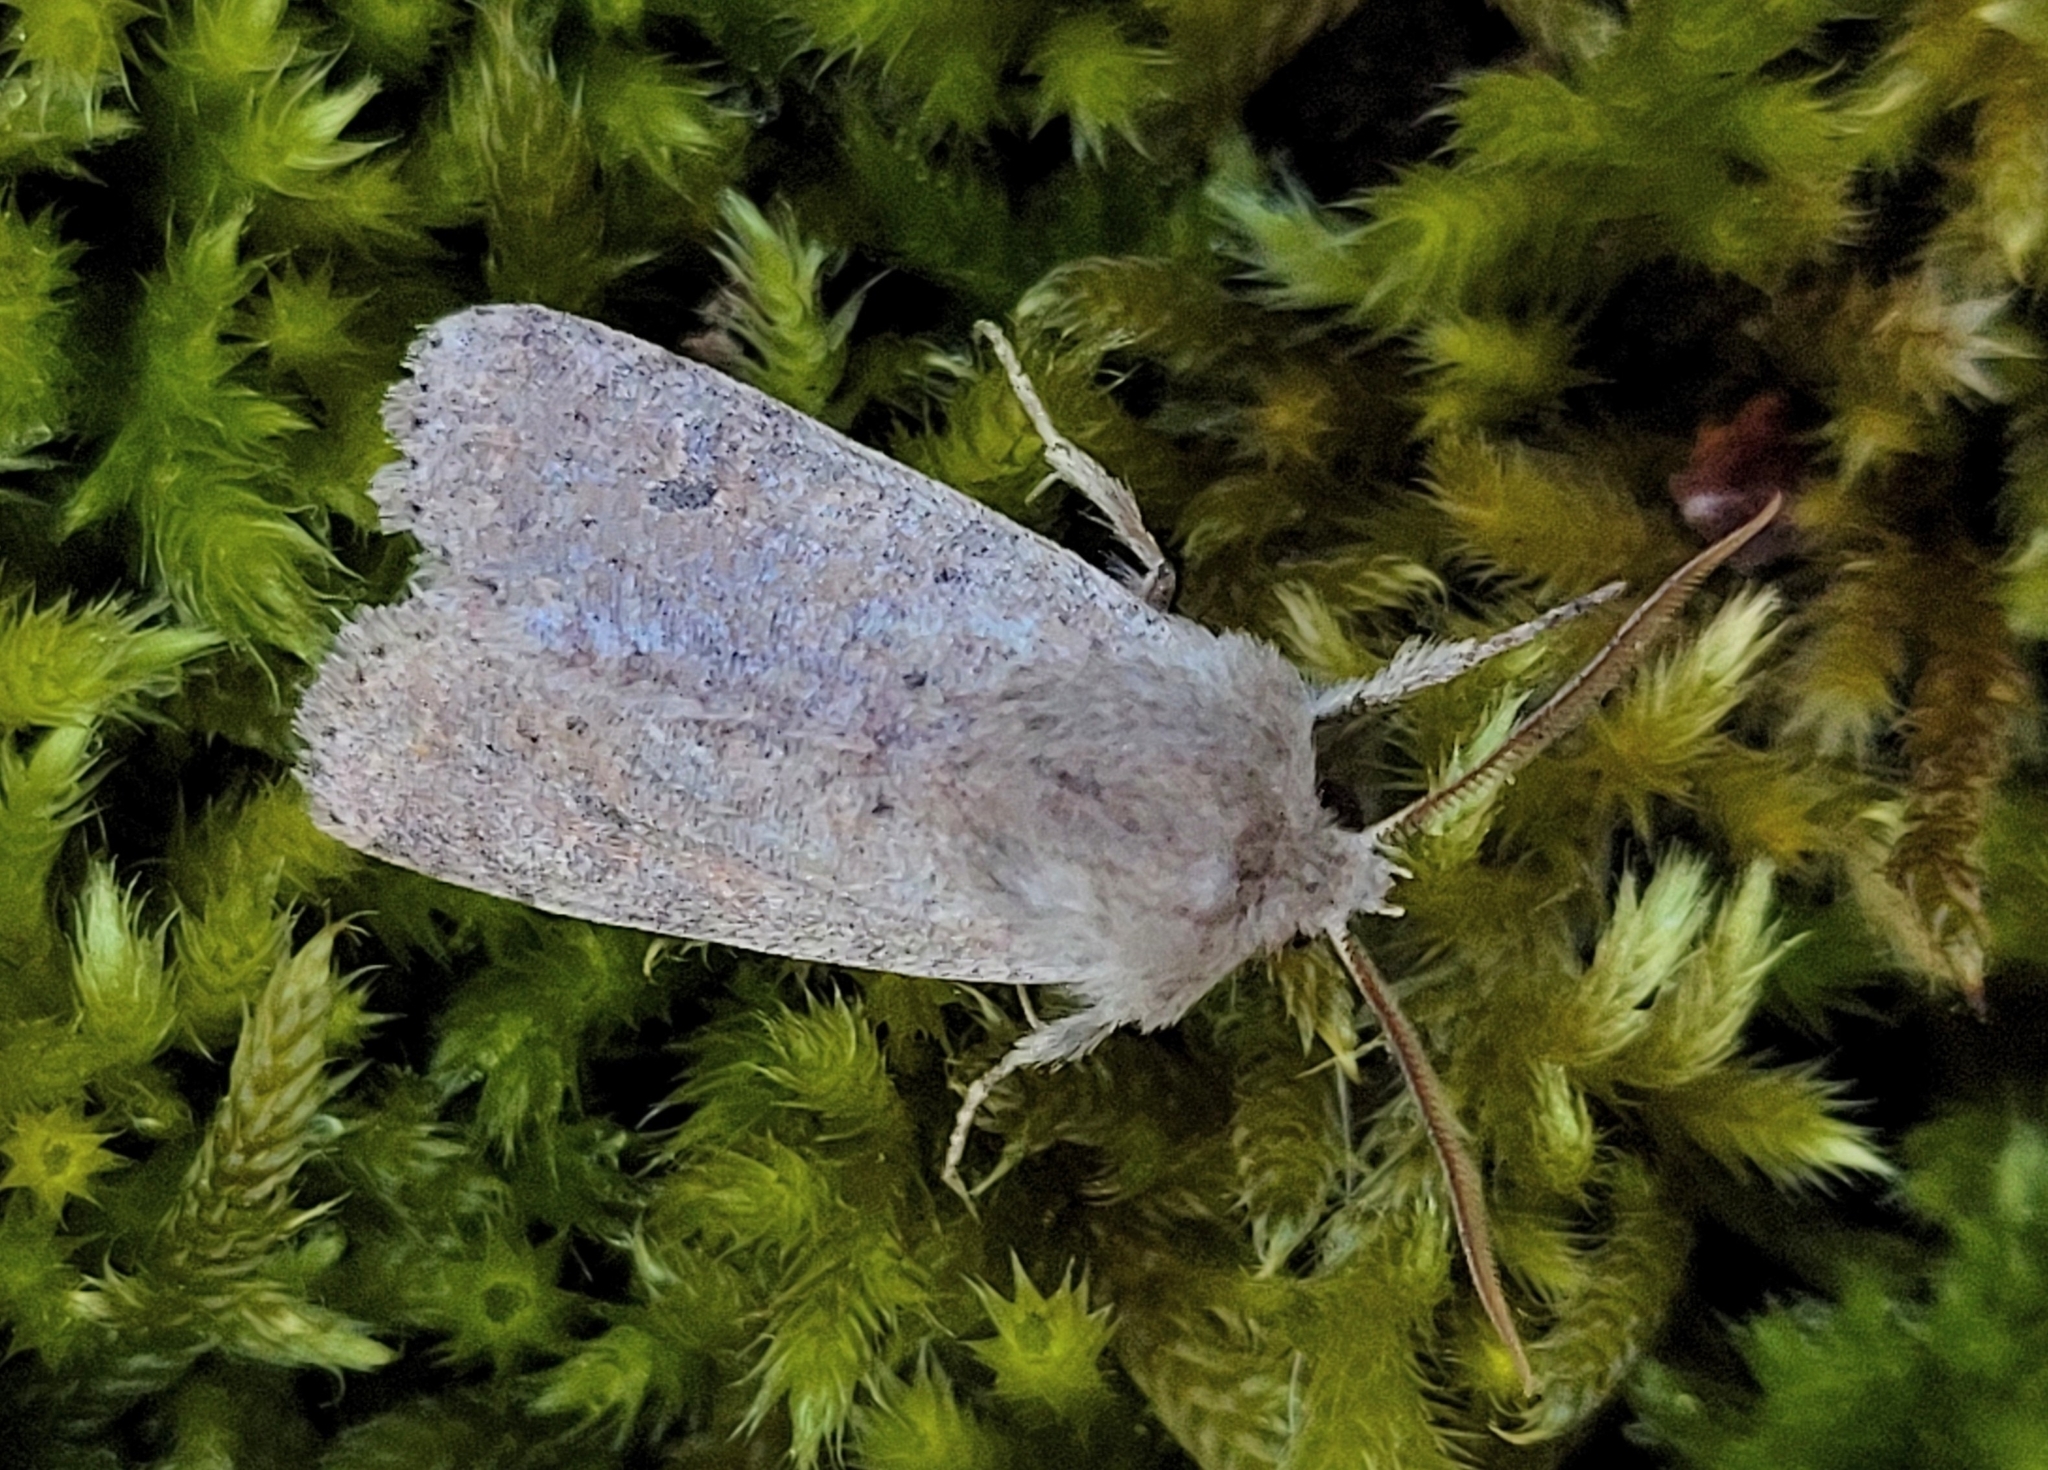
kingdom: Animalia
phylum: Arthropoda
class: Insecta
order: Lepidoptera
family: Noctuidae
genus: Orthosia
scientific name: Orthosia cruda
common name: Small quaker
